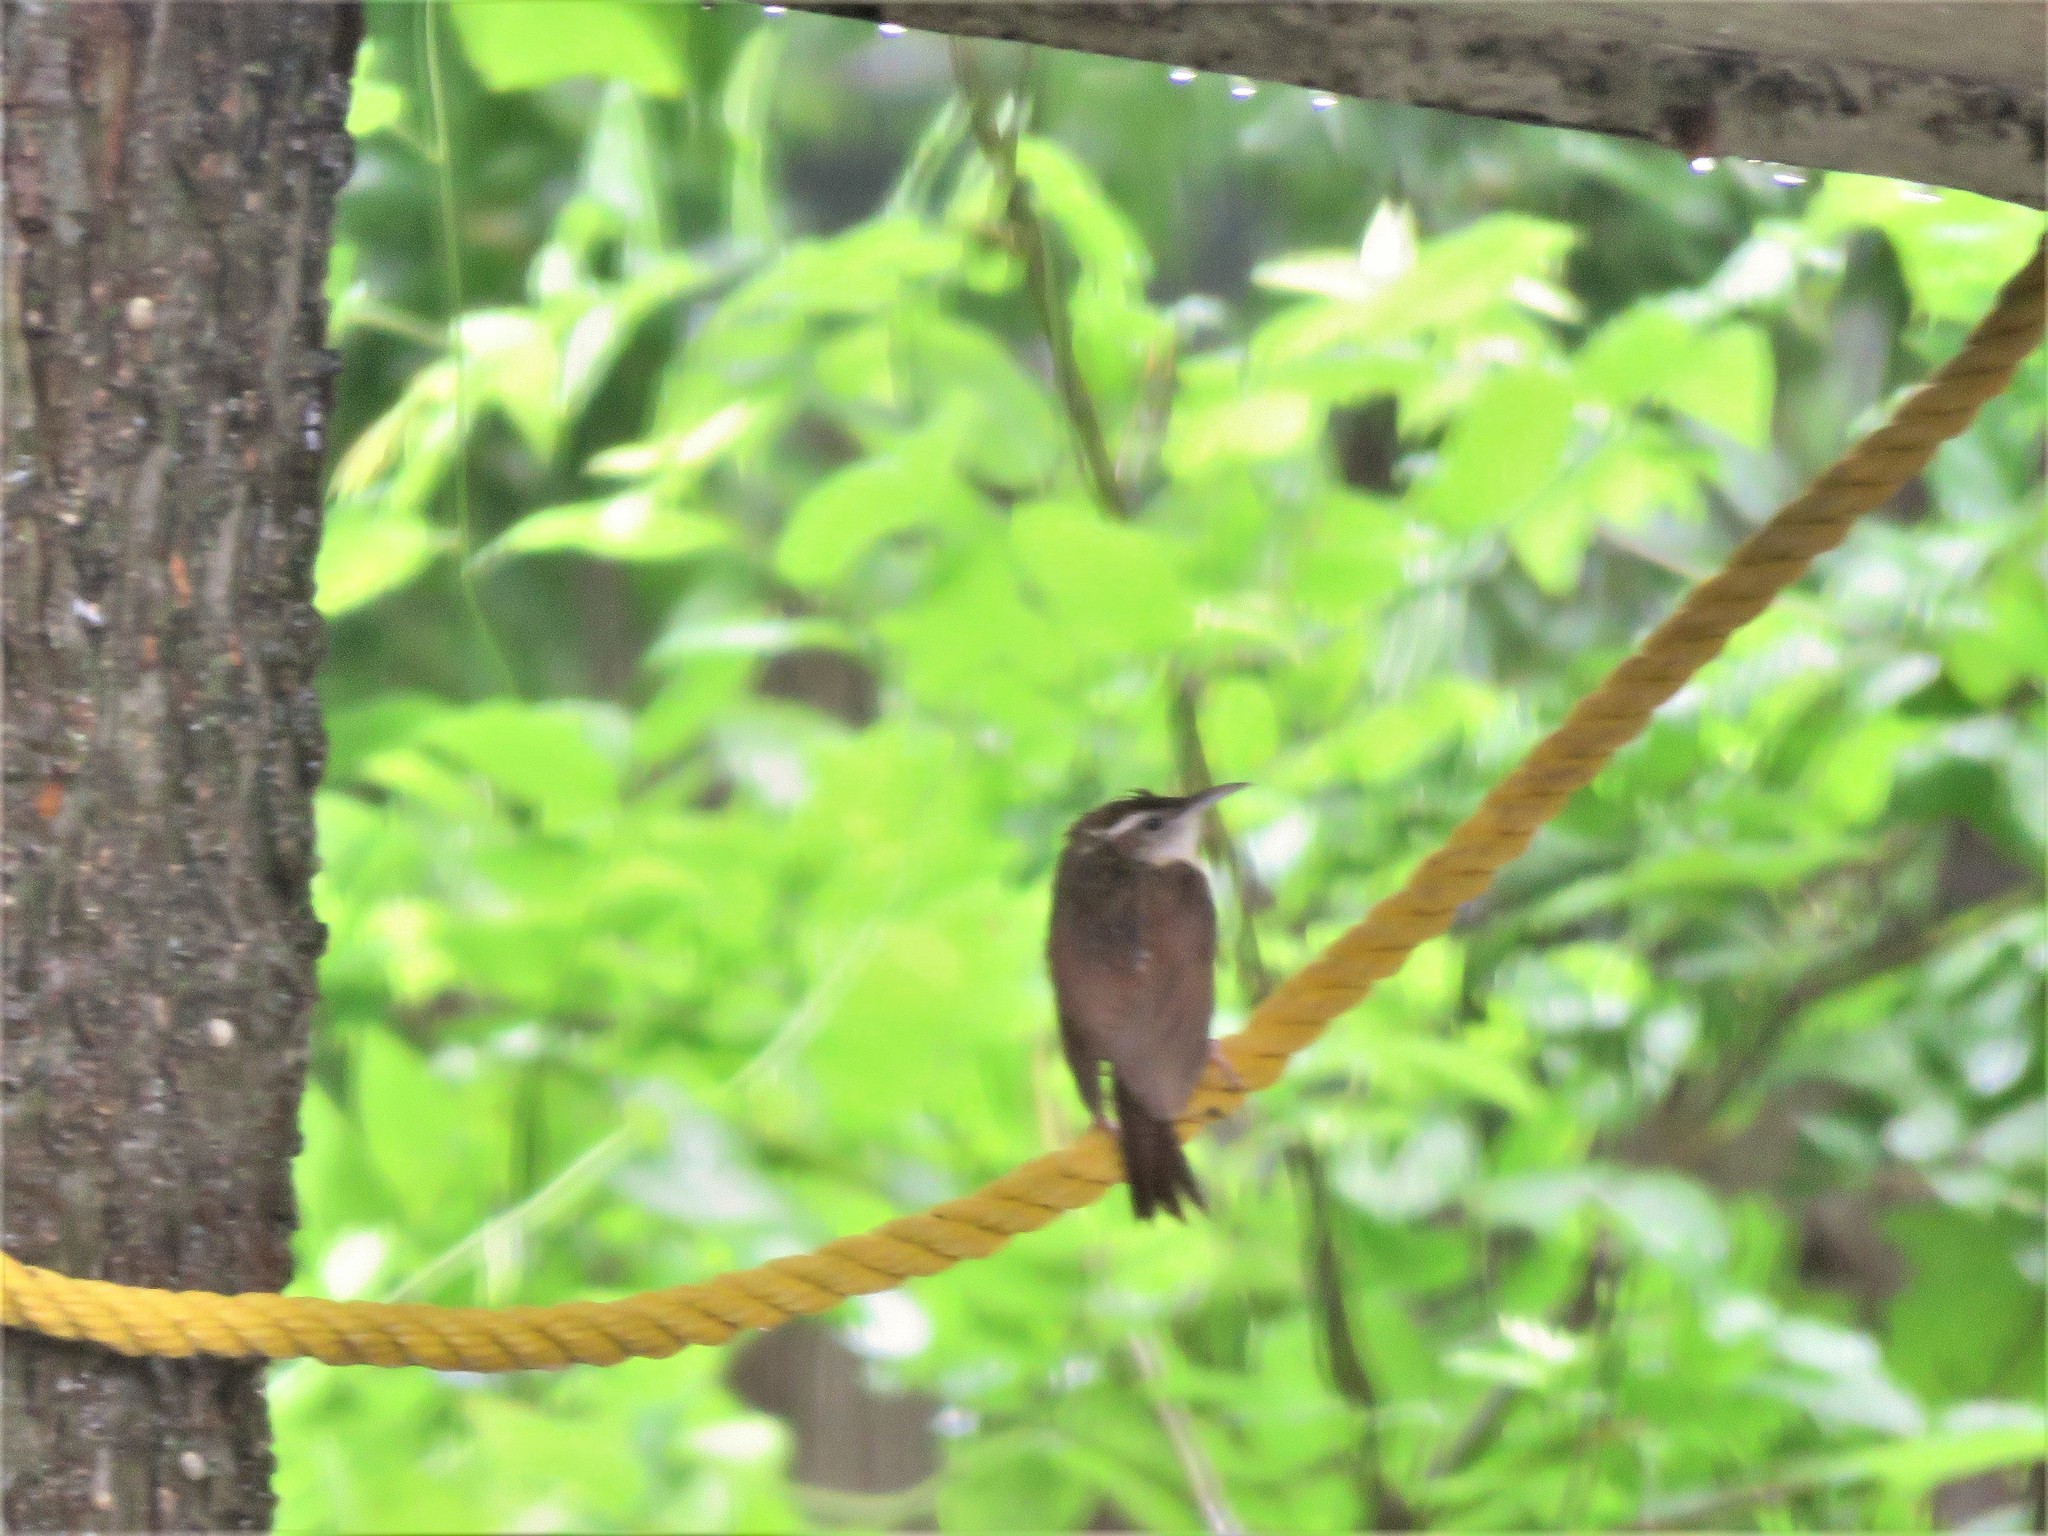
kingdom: Animalia
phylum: Chordata
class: Aves
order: Passeriformes
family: Troglodytidae
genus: Thryothorus
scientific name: Thryothorus ludovicianus
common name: Carolina wren
